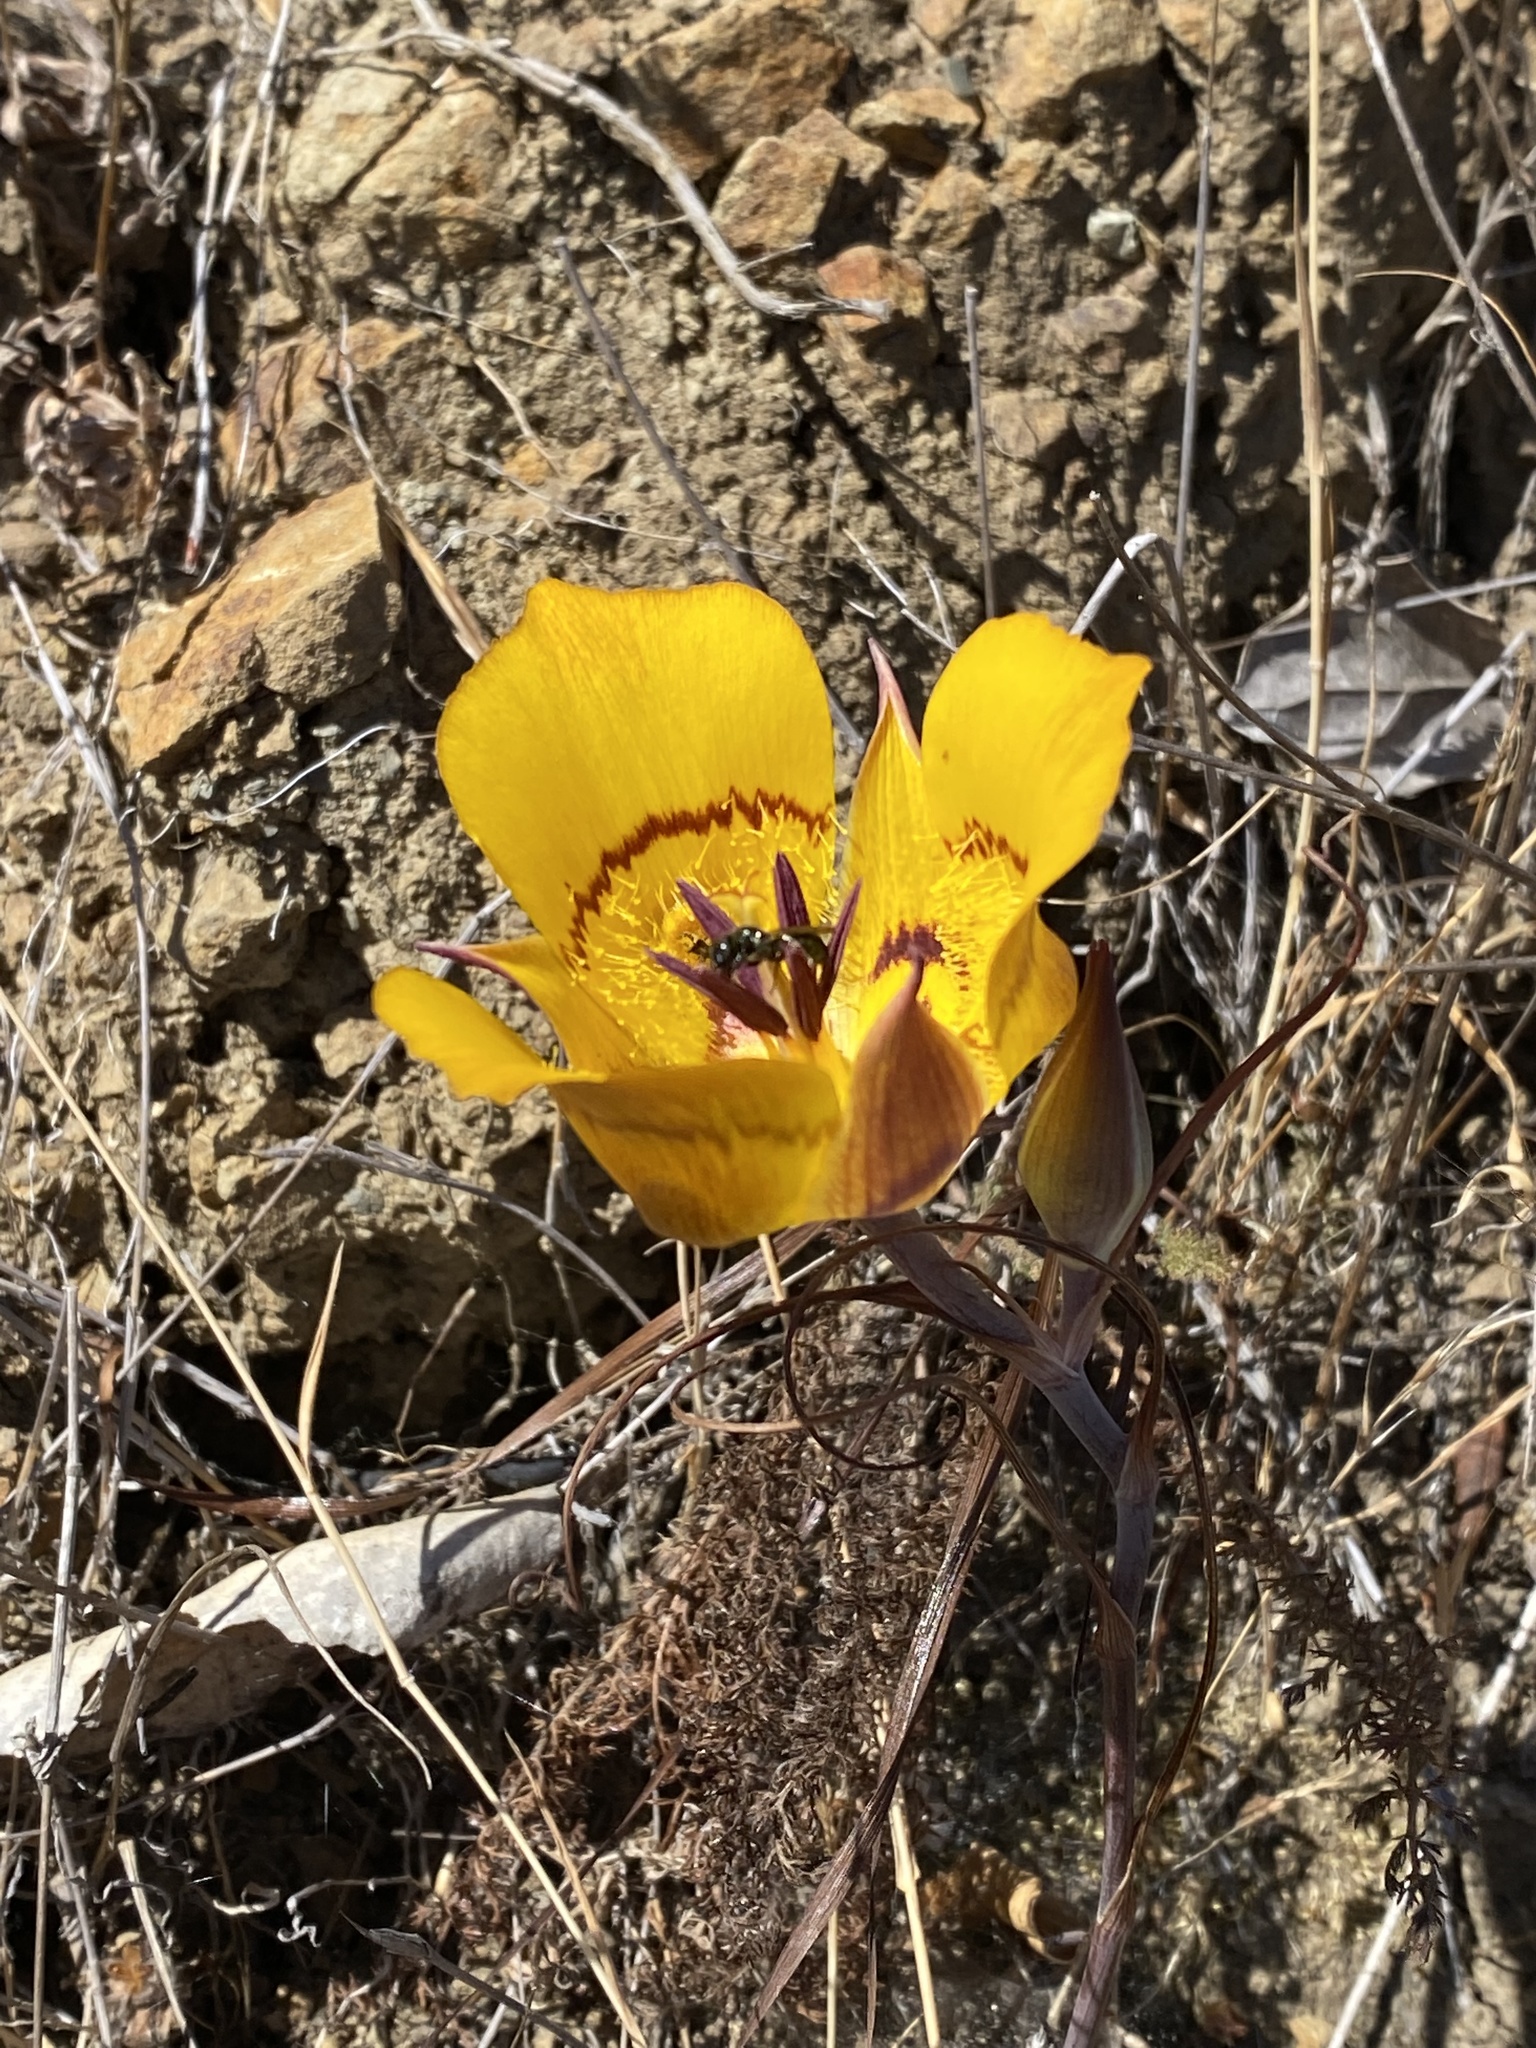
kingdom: Plantae
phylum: Tracheophyta
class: Liliopsida
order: Liliales
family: Liliaceae
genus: Calochortus
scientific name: Calochortus clavatus
